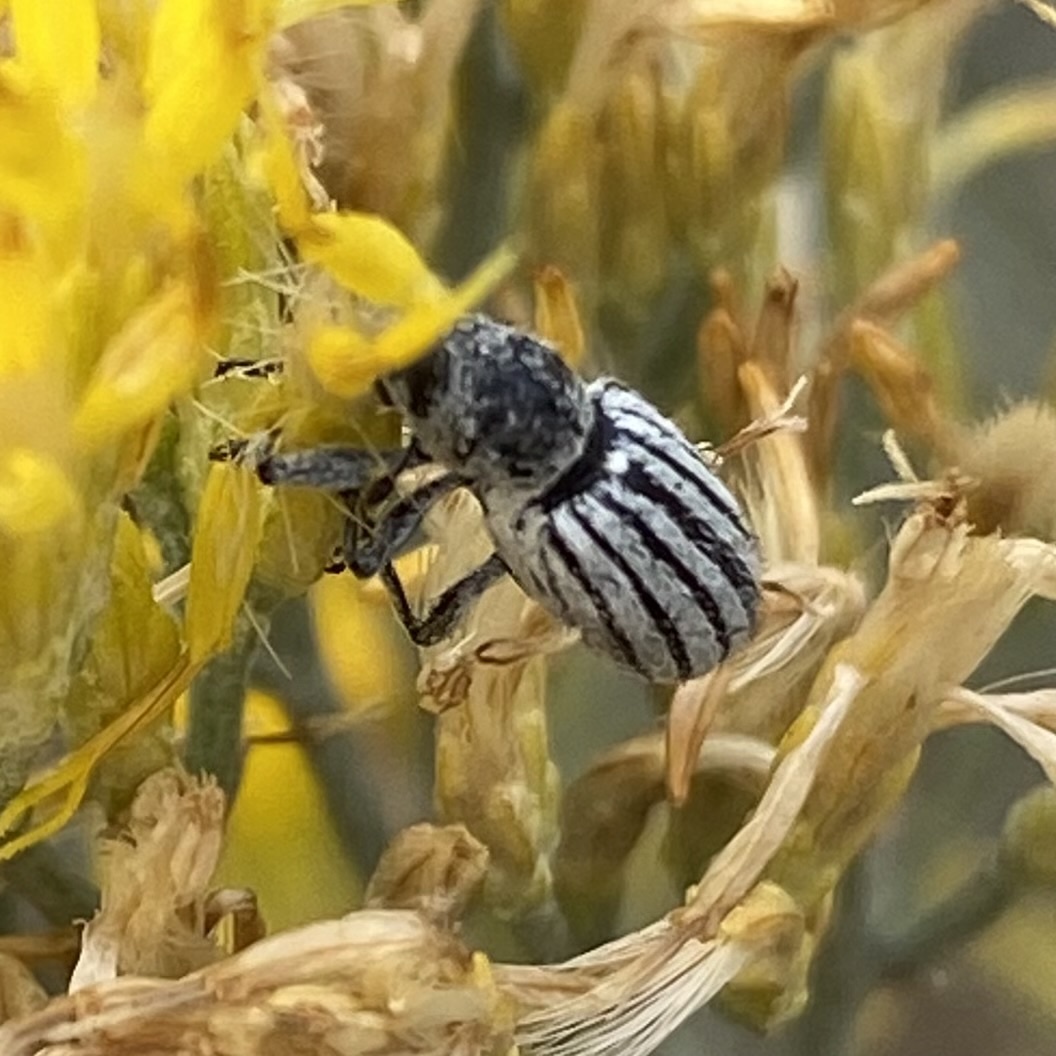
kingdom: Animalia
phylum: Arthropoda
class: Insecta
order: Coleoptera
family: Curculionidae
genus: Myrmex
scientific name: Myrmex lineatus
